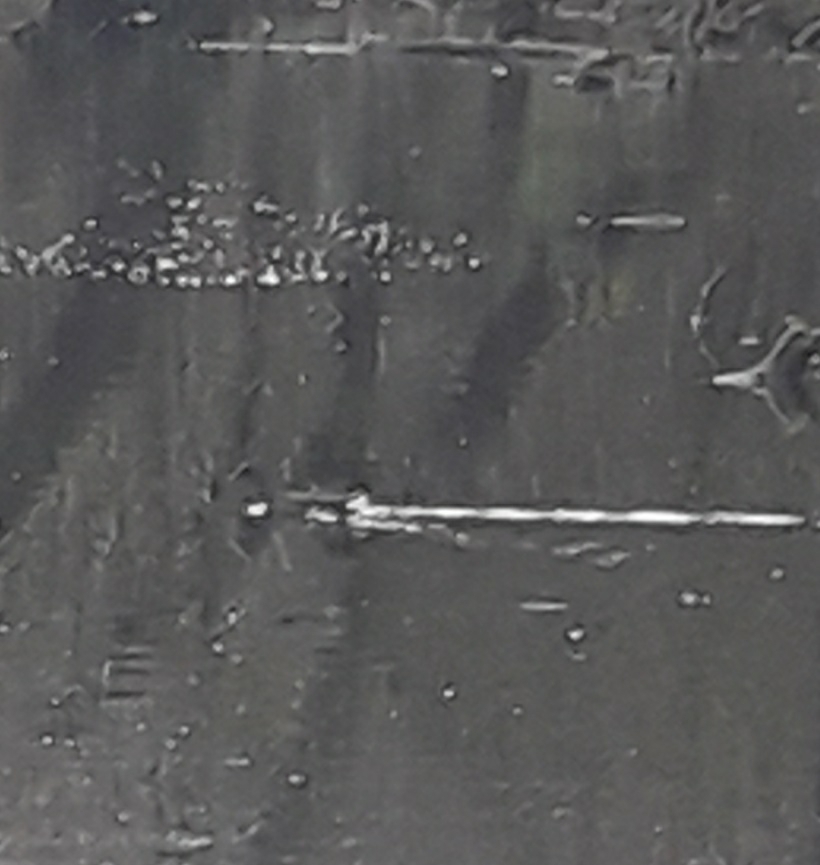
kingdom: Animalia
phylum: Chordata
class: Aves
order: Gruiformes
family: Rallidae
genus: Gallinula
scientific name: Gallinula chloropus
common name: Common moorhen
